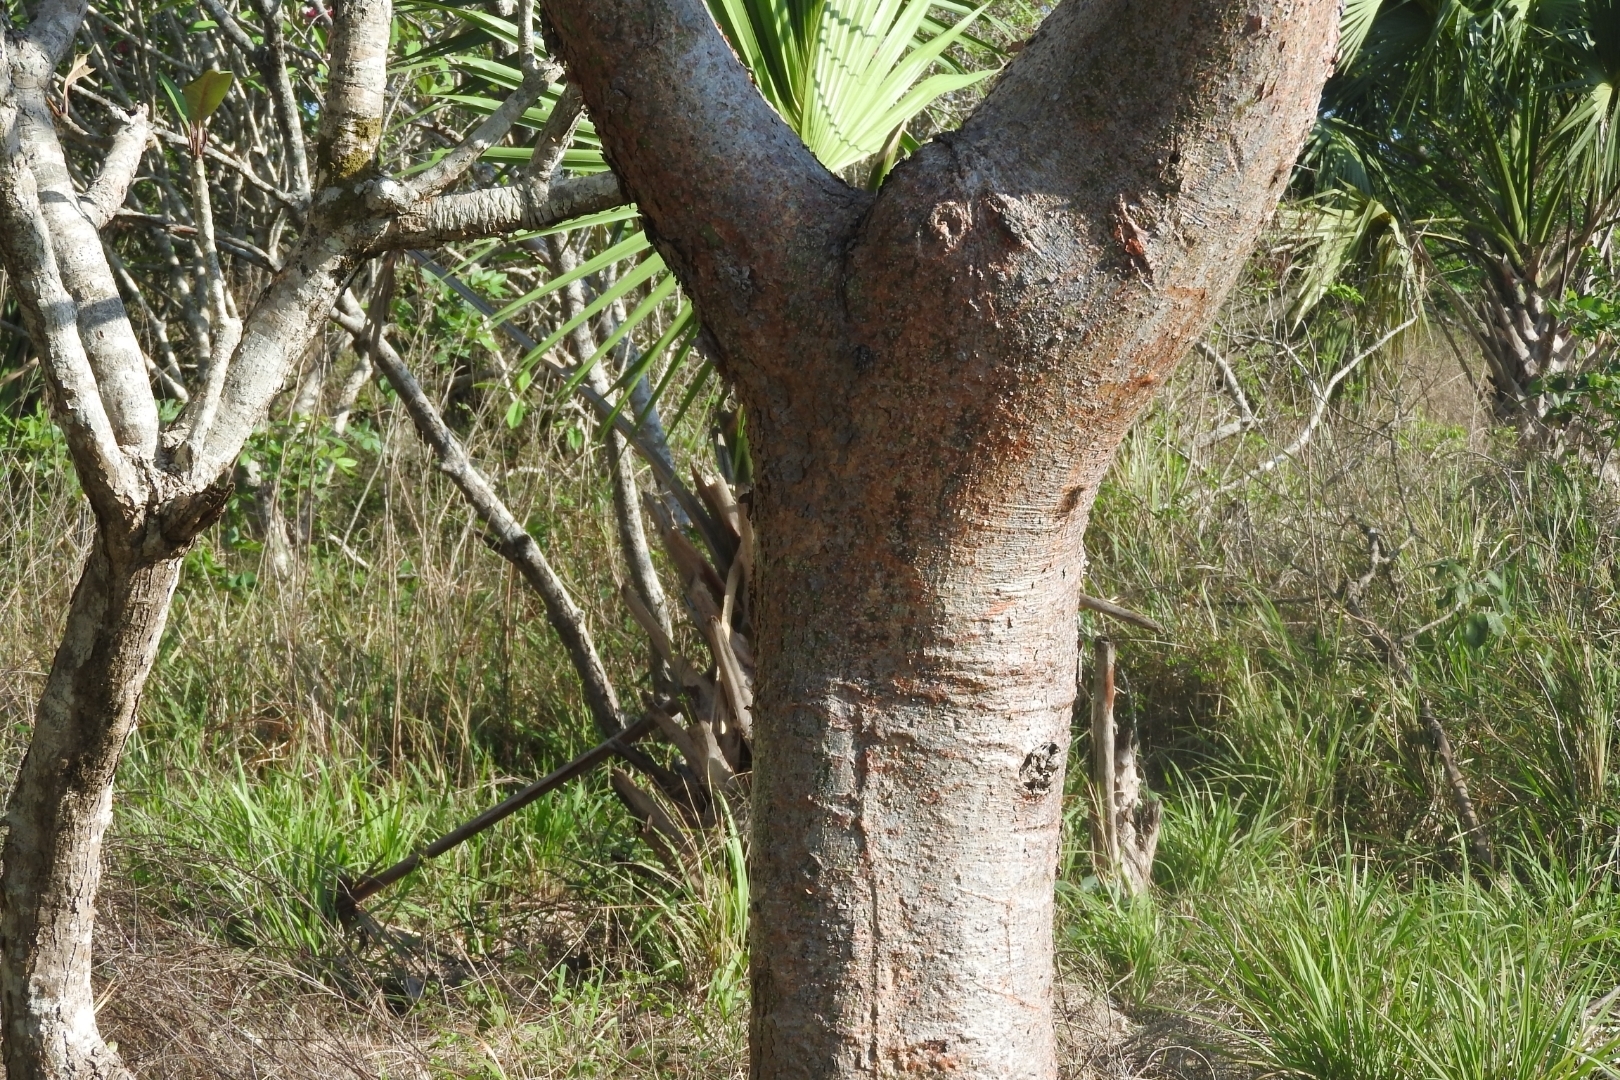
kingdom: Plantae
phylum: Tracheophyta
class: Magnoliopsida
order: Sapindales
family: Burseraceae
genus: Bursera
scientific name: Bursera simaruba
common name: Turpentine tree
